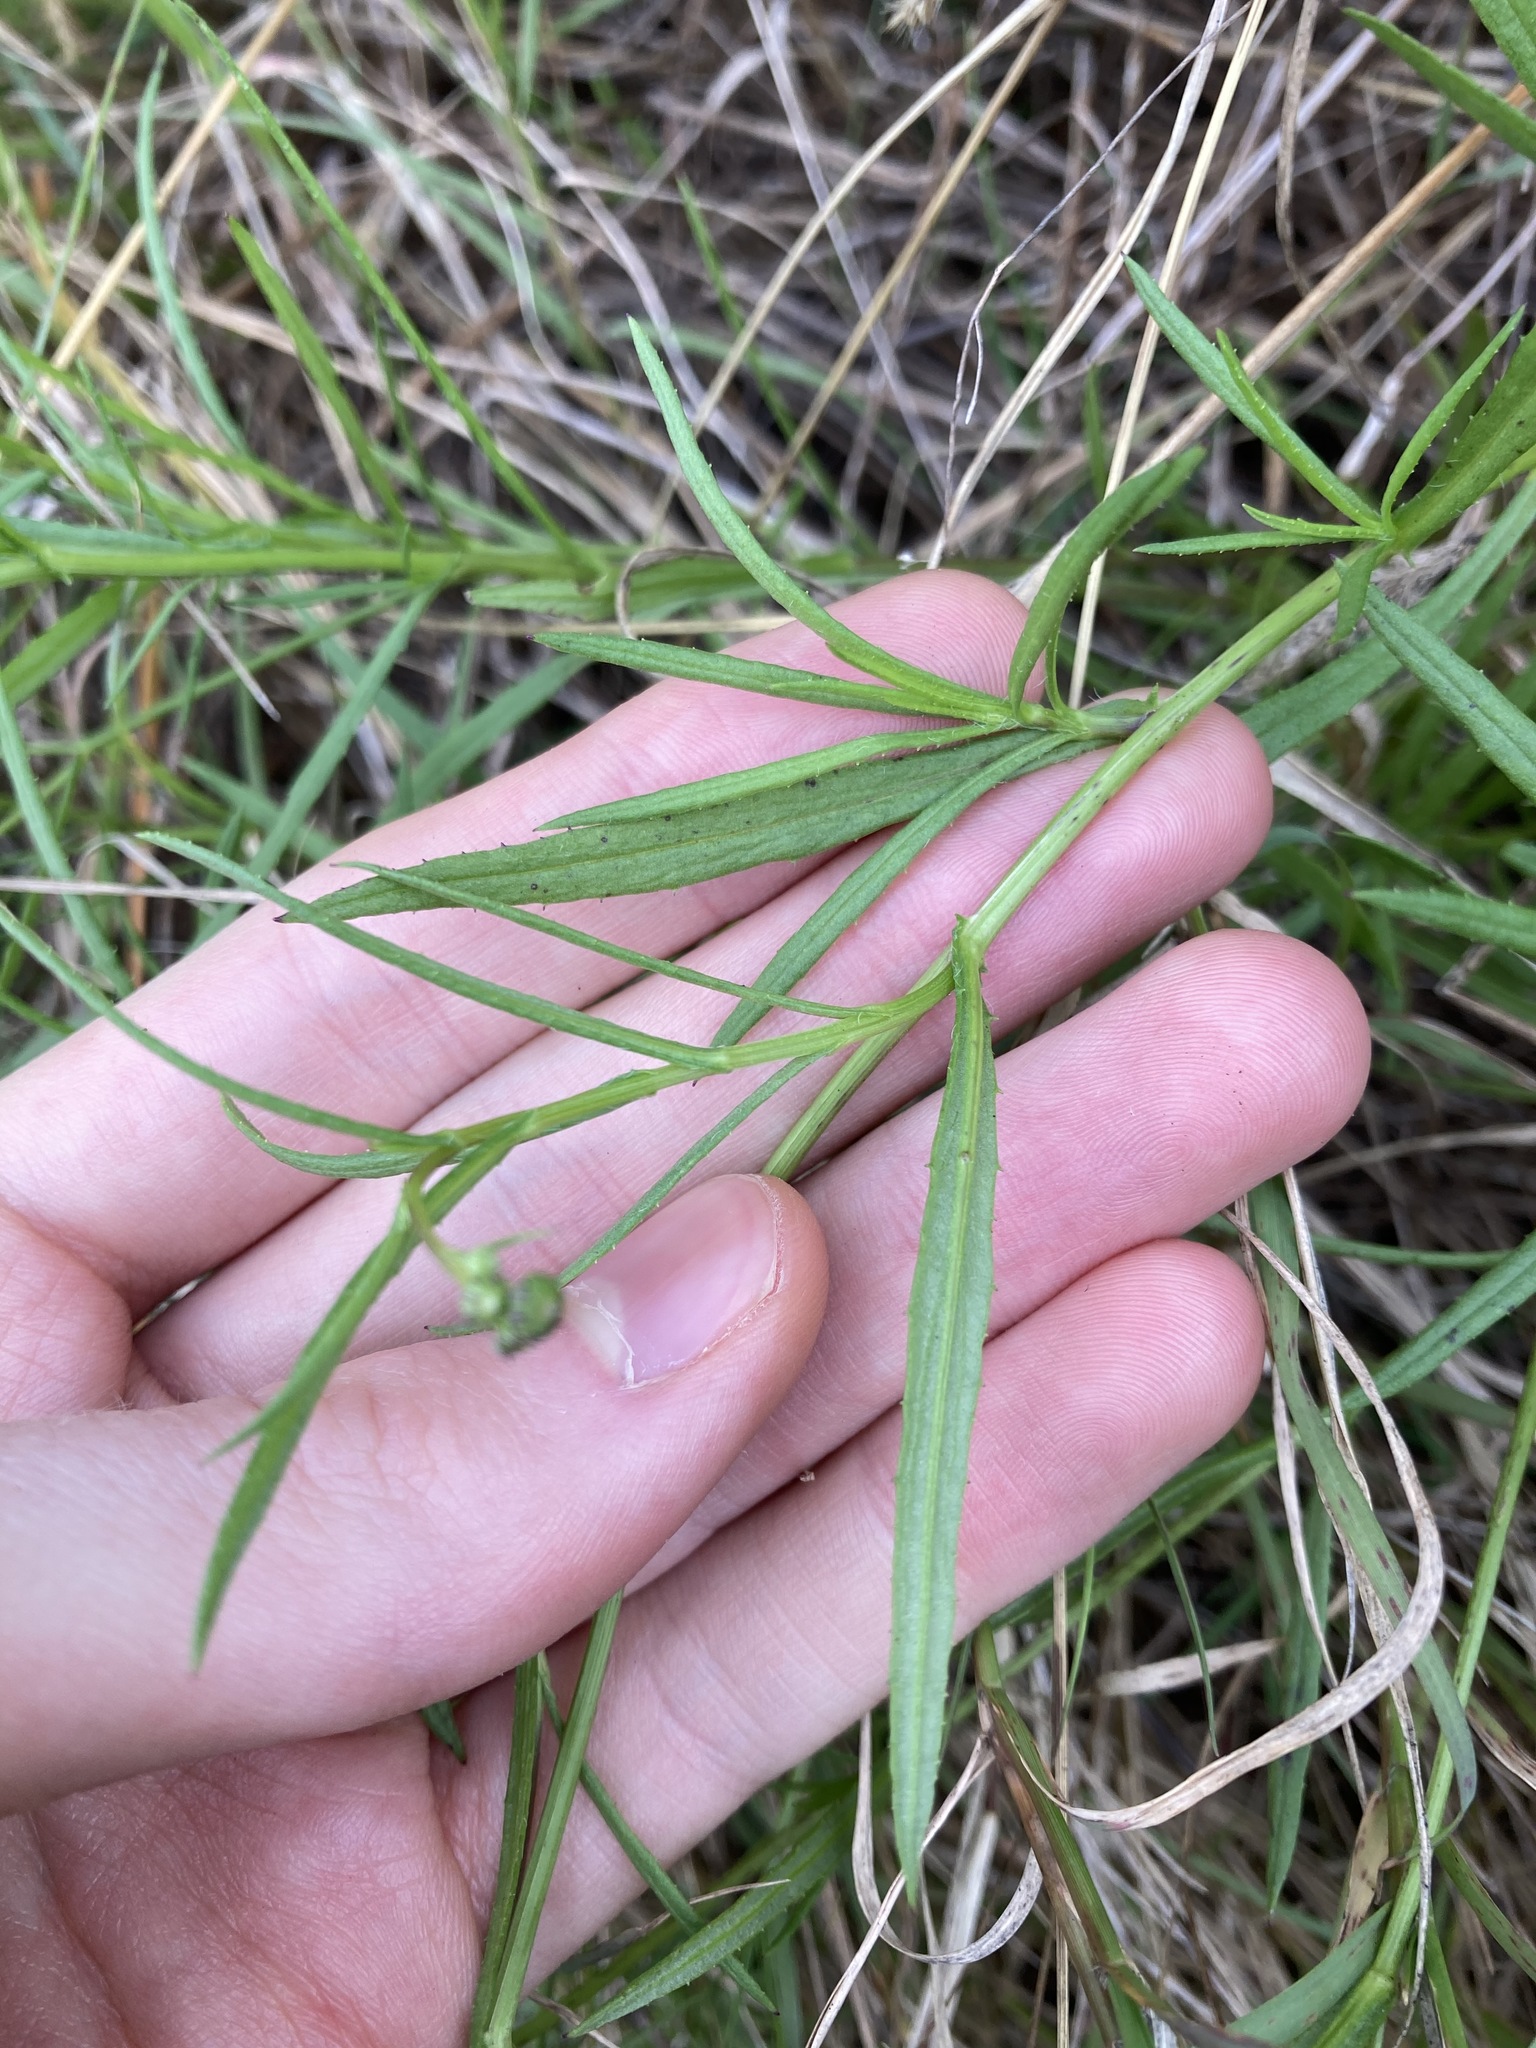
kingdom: Plantae
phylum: Tracheophyta
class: Magnoliopsida
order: Asterales
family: Asteraceae
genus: Senecio
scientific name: Senecio madagascariensis
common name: Madagascar ragwort
